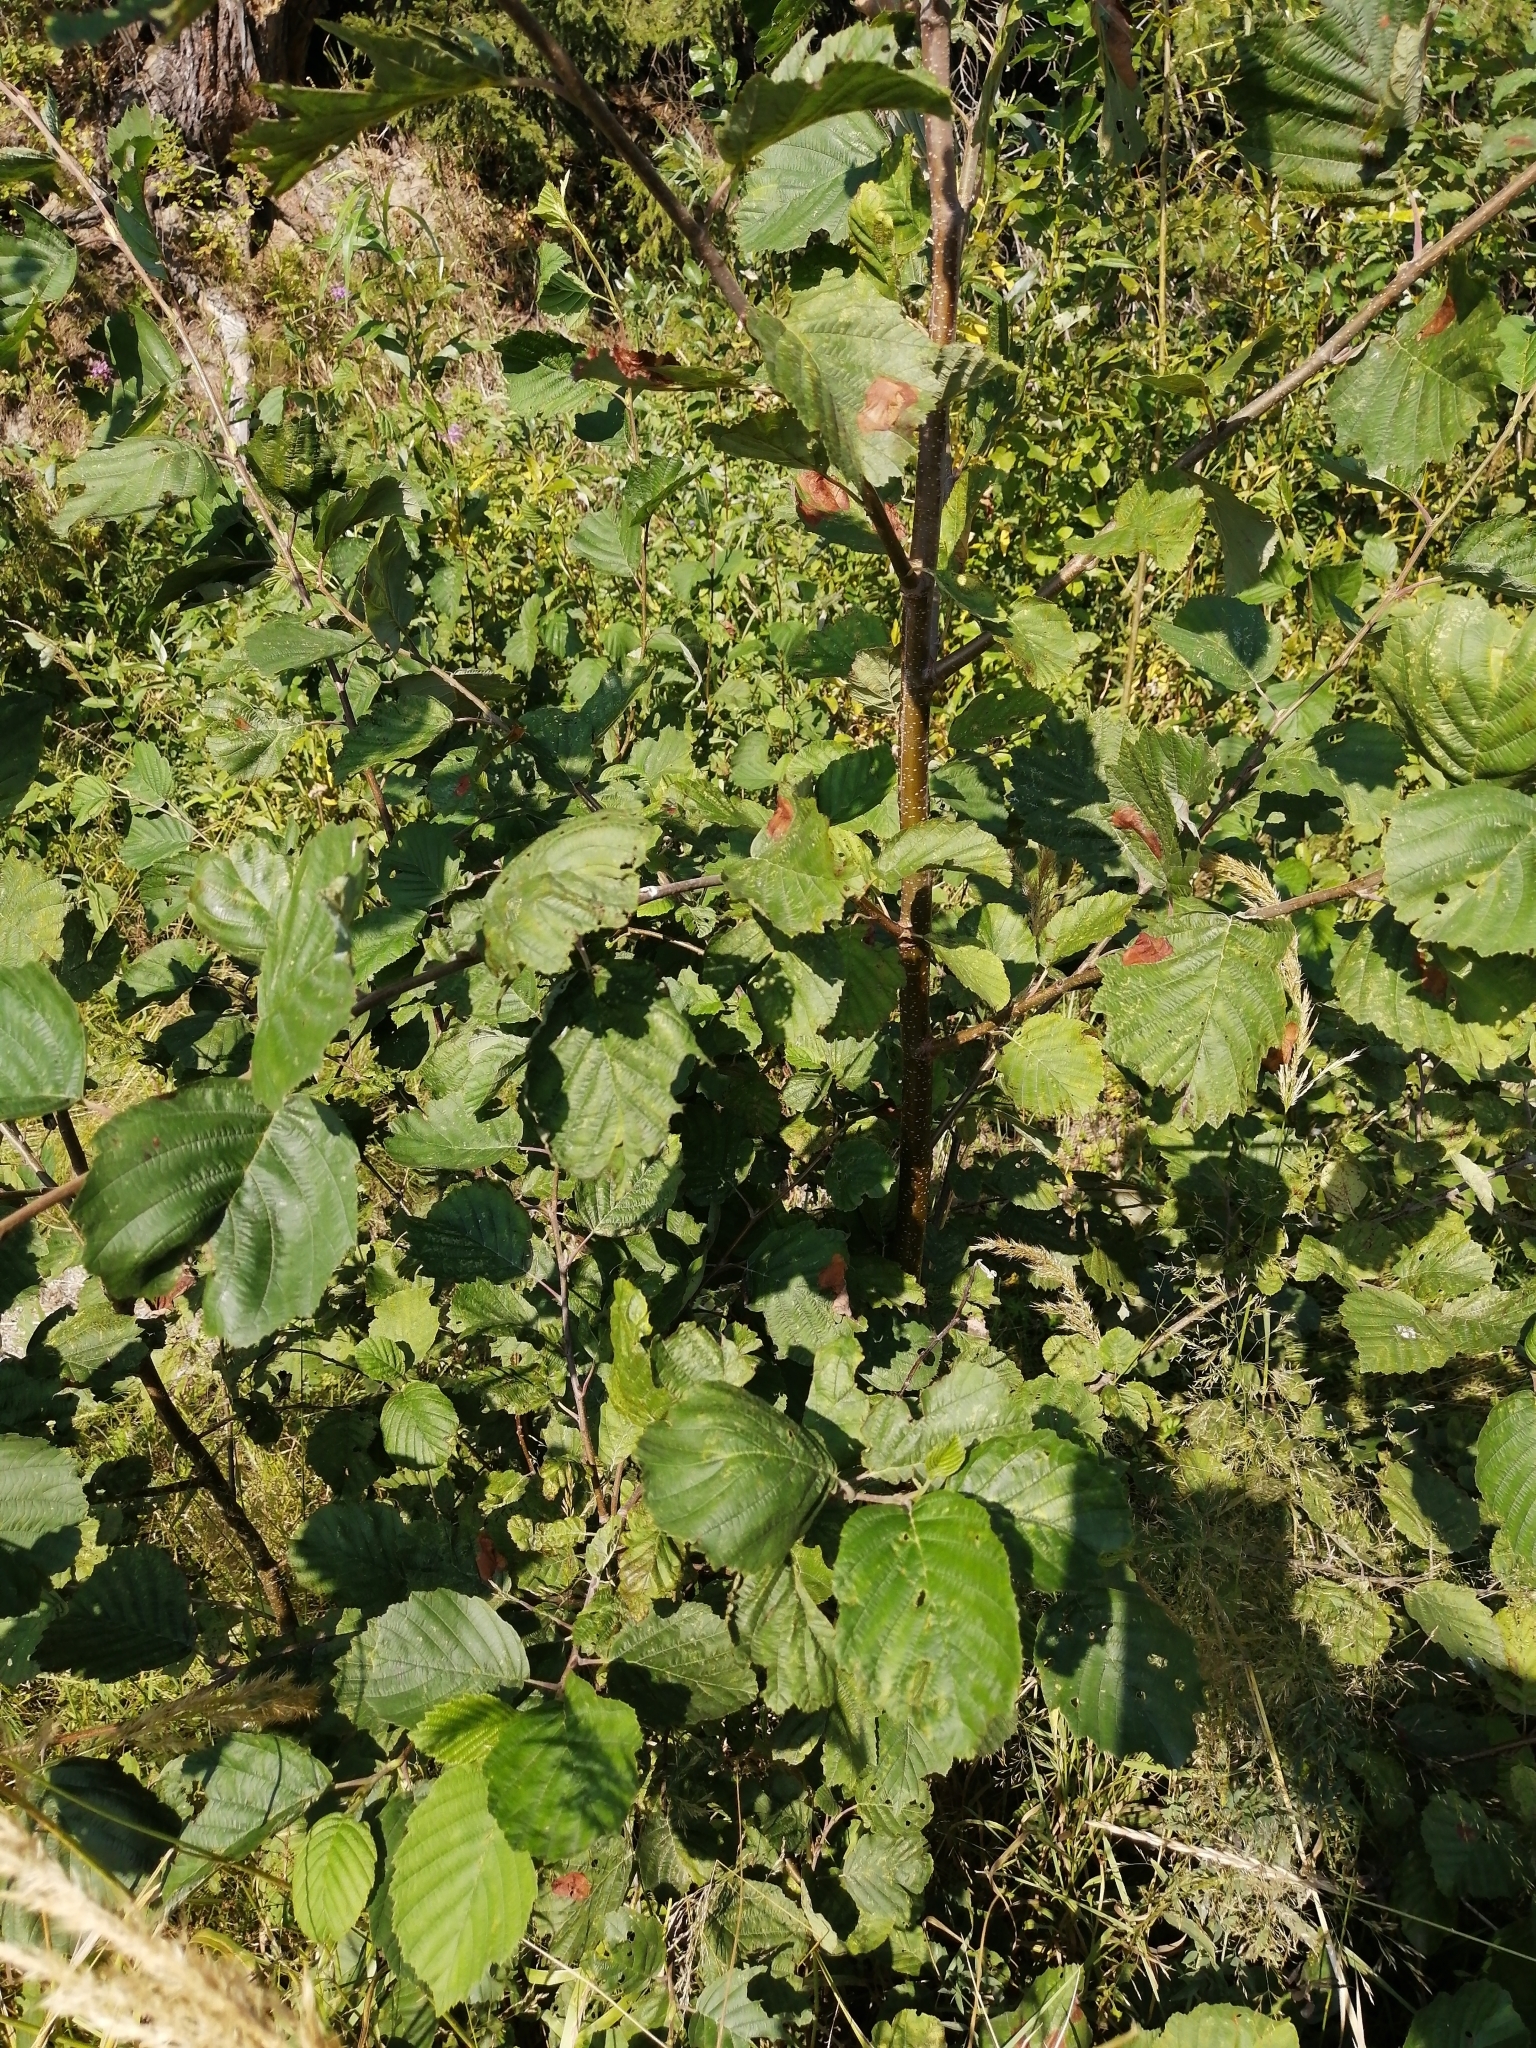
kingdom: Plantae
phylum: Tracheophyta
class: Magnoliopsida
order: Fagales
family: Betulaceae
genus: Alnus
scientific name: Alnus incana
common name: Grey alder
